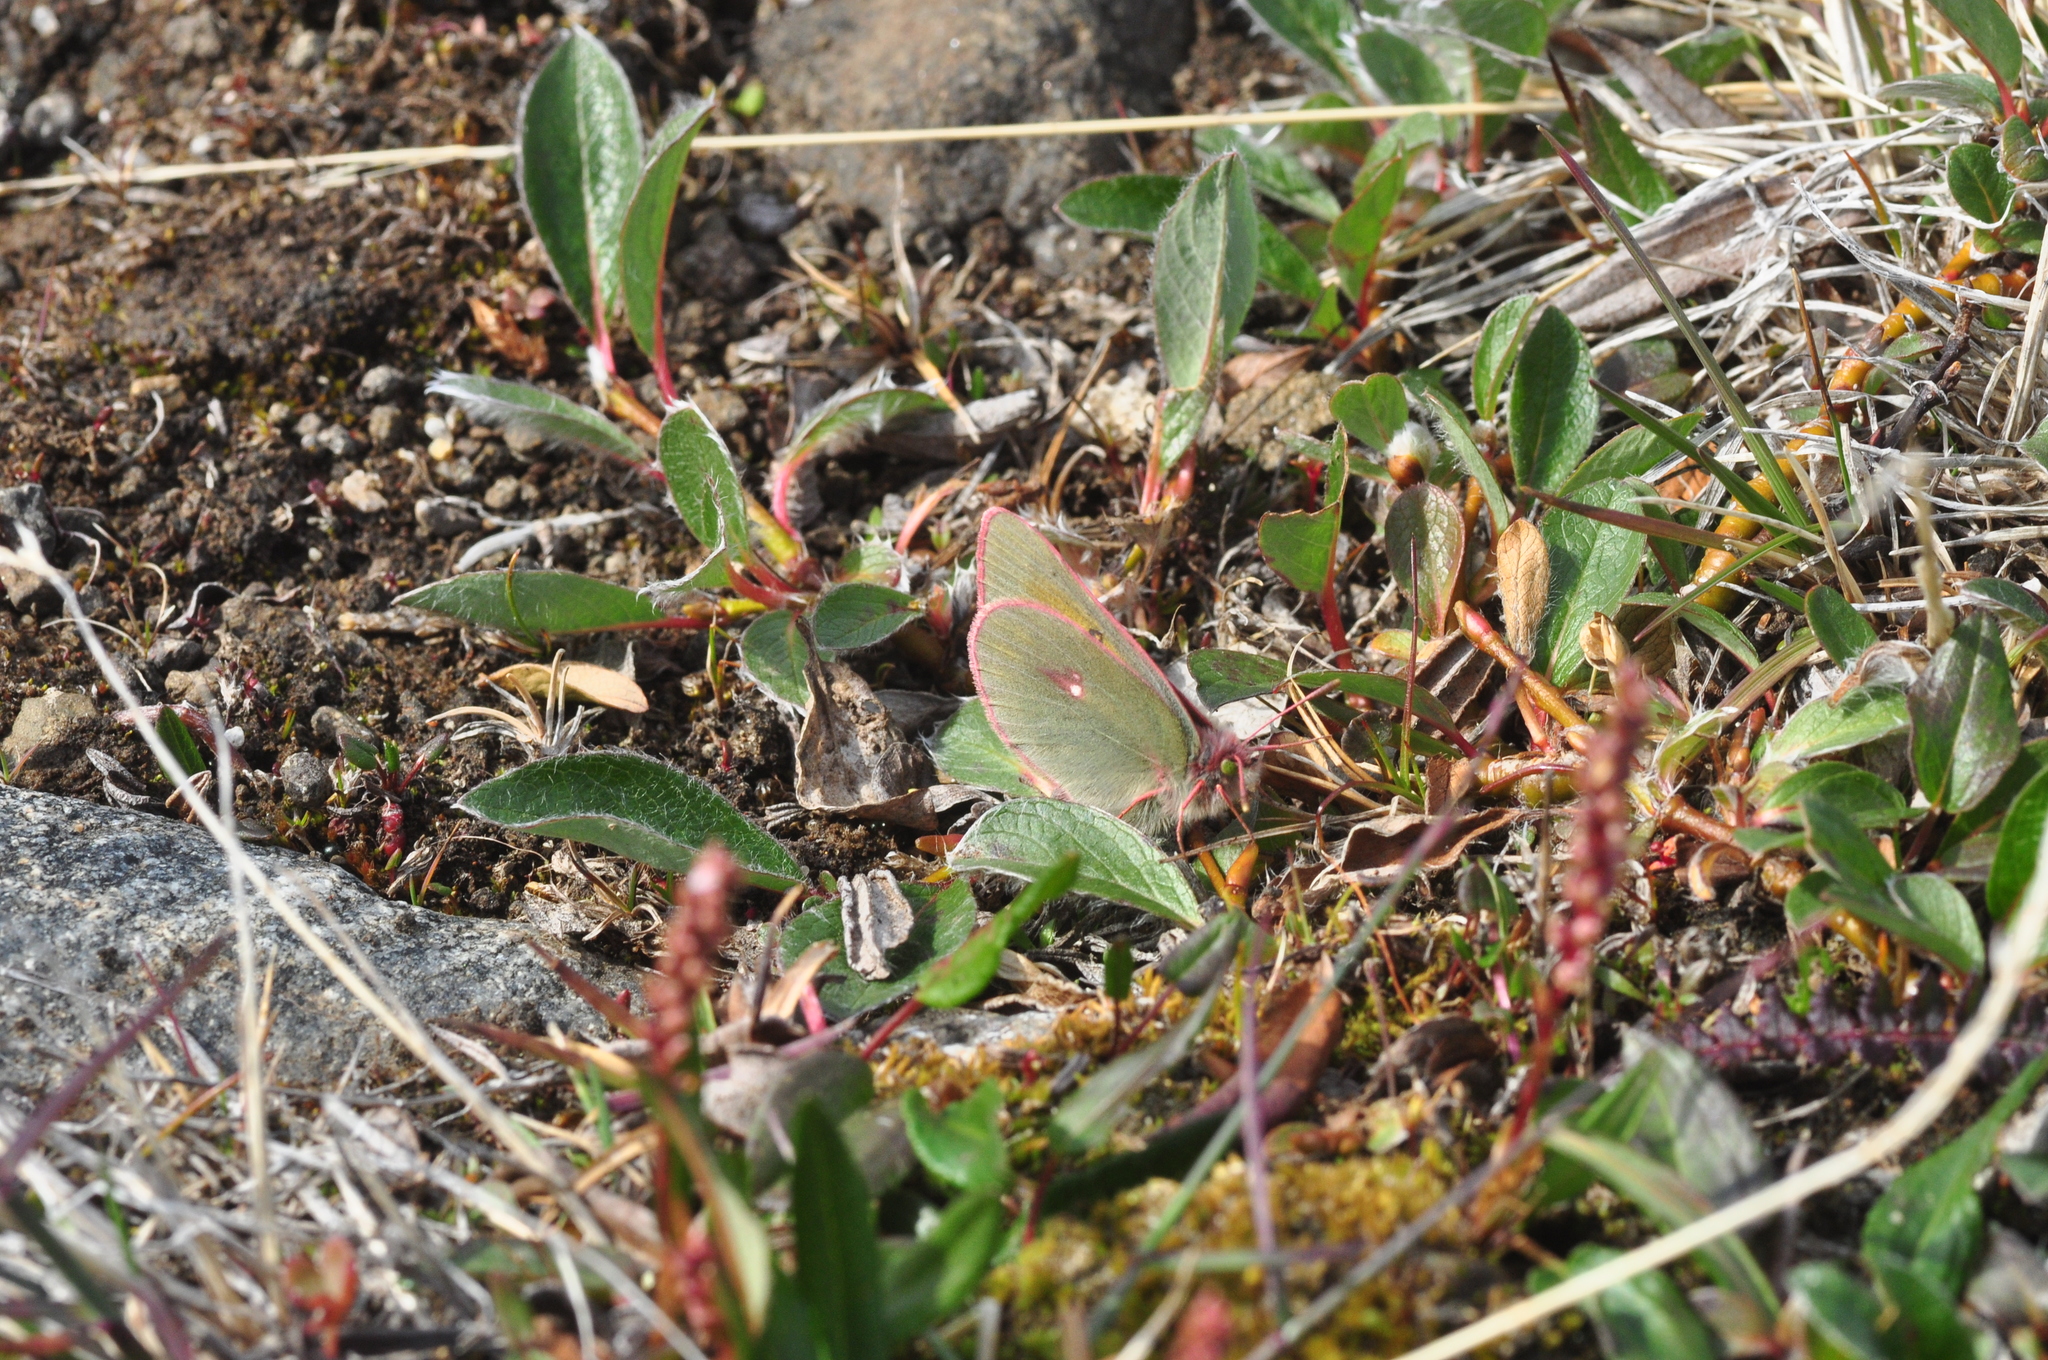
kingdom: Animalia
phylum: Arthropoda
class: Insecta
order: Lepidoptera
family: Pieridae
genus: Colias
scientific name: Colias hecla
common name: Northern clouded yellow
